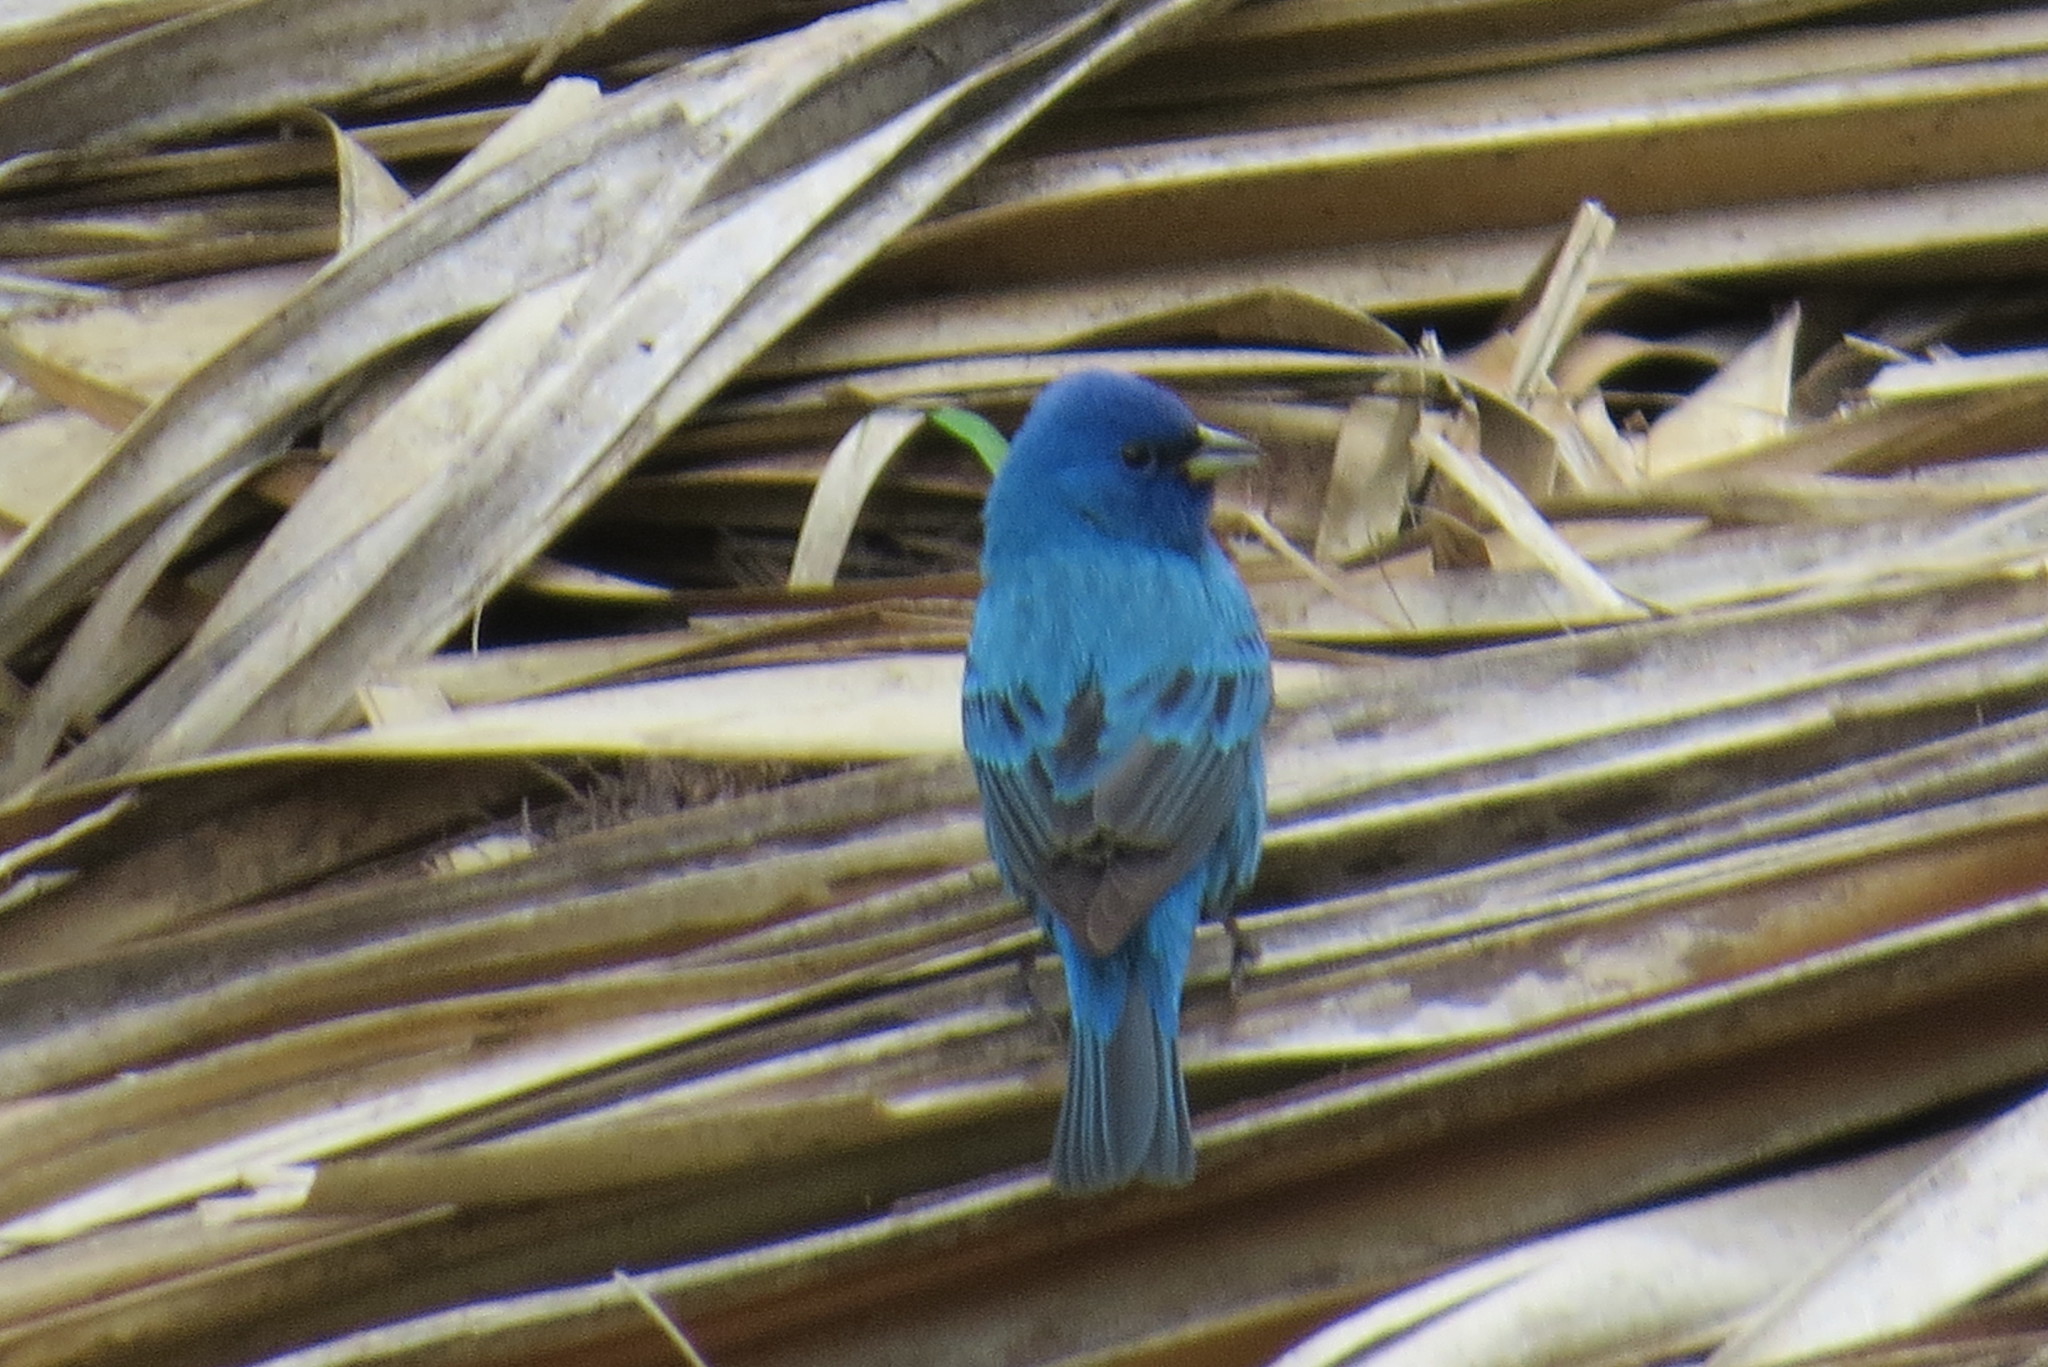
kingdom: Animalia
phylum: Chordata
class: Aves
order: Passeriformes
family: Cardinalidae
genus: Passerina
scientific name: Passerina cyanea
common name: Indigo bunting
